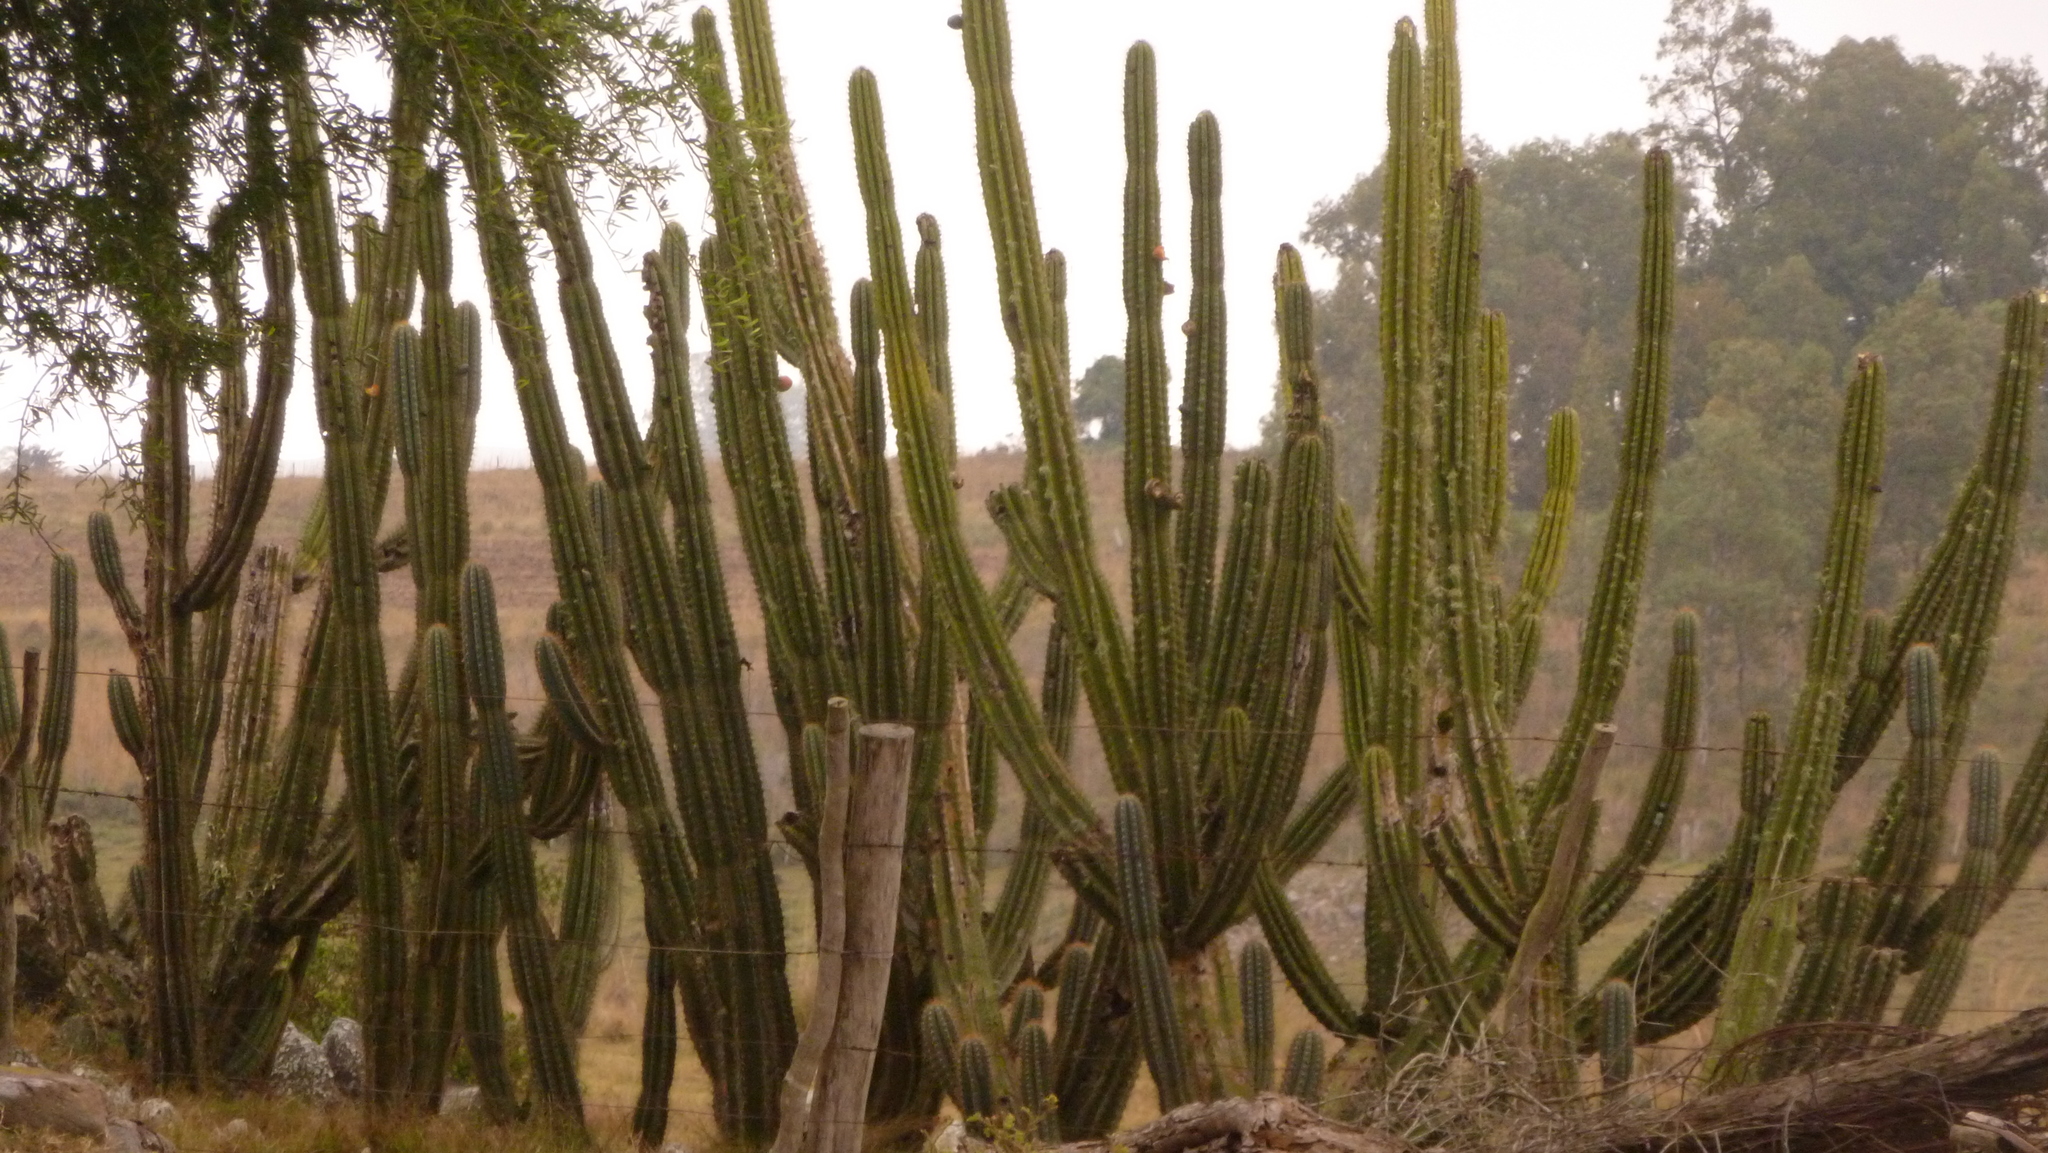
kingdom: Plantae
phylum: Tracheophyta
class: Magnoliopsida
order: Caryophyllales
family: Cactaceae
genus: Cereus
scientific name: Cereus hildmannianus
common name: Hedge cactus
